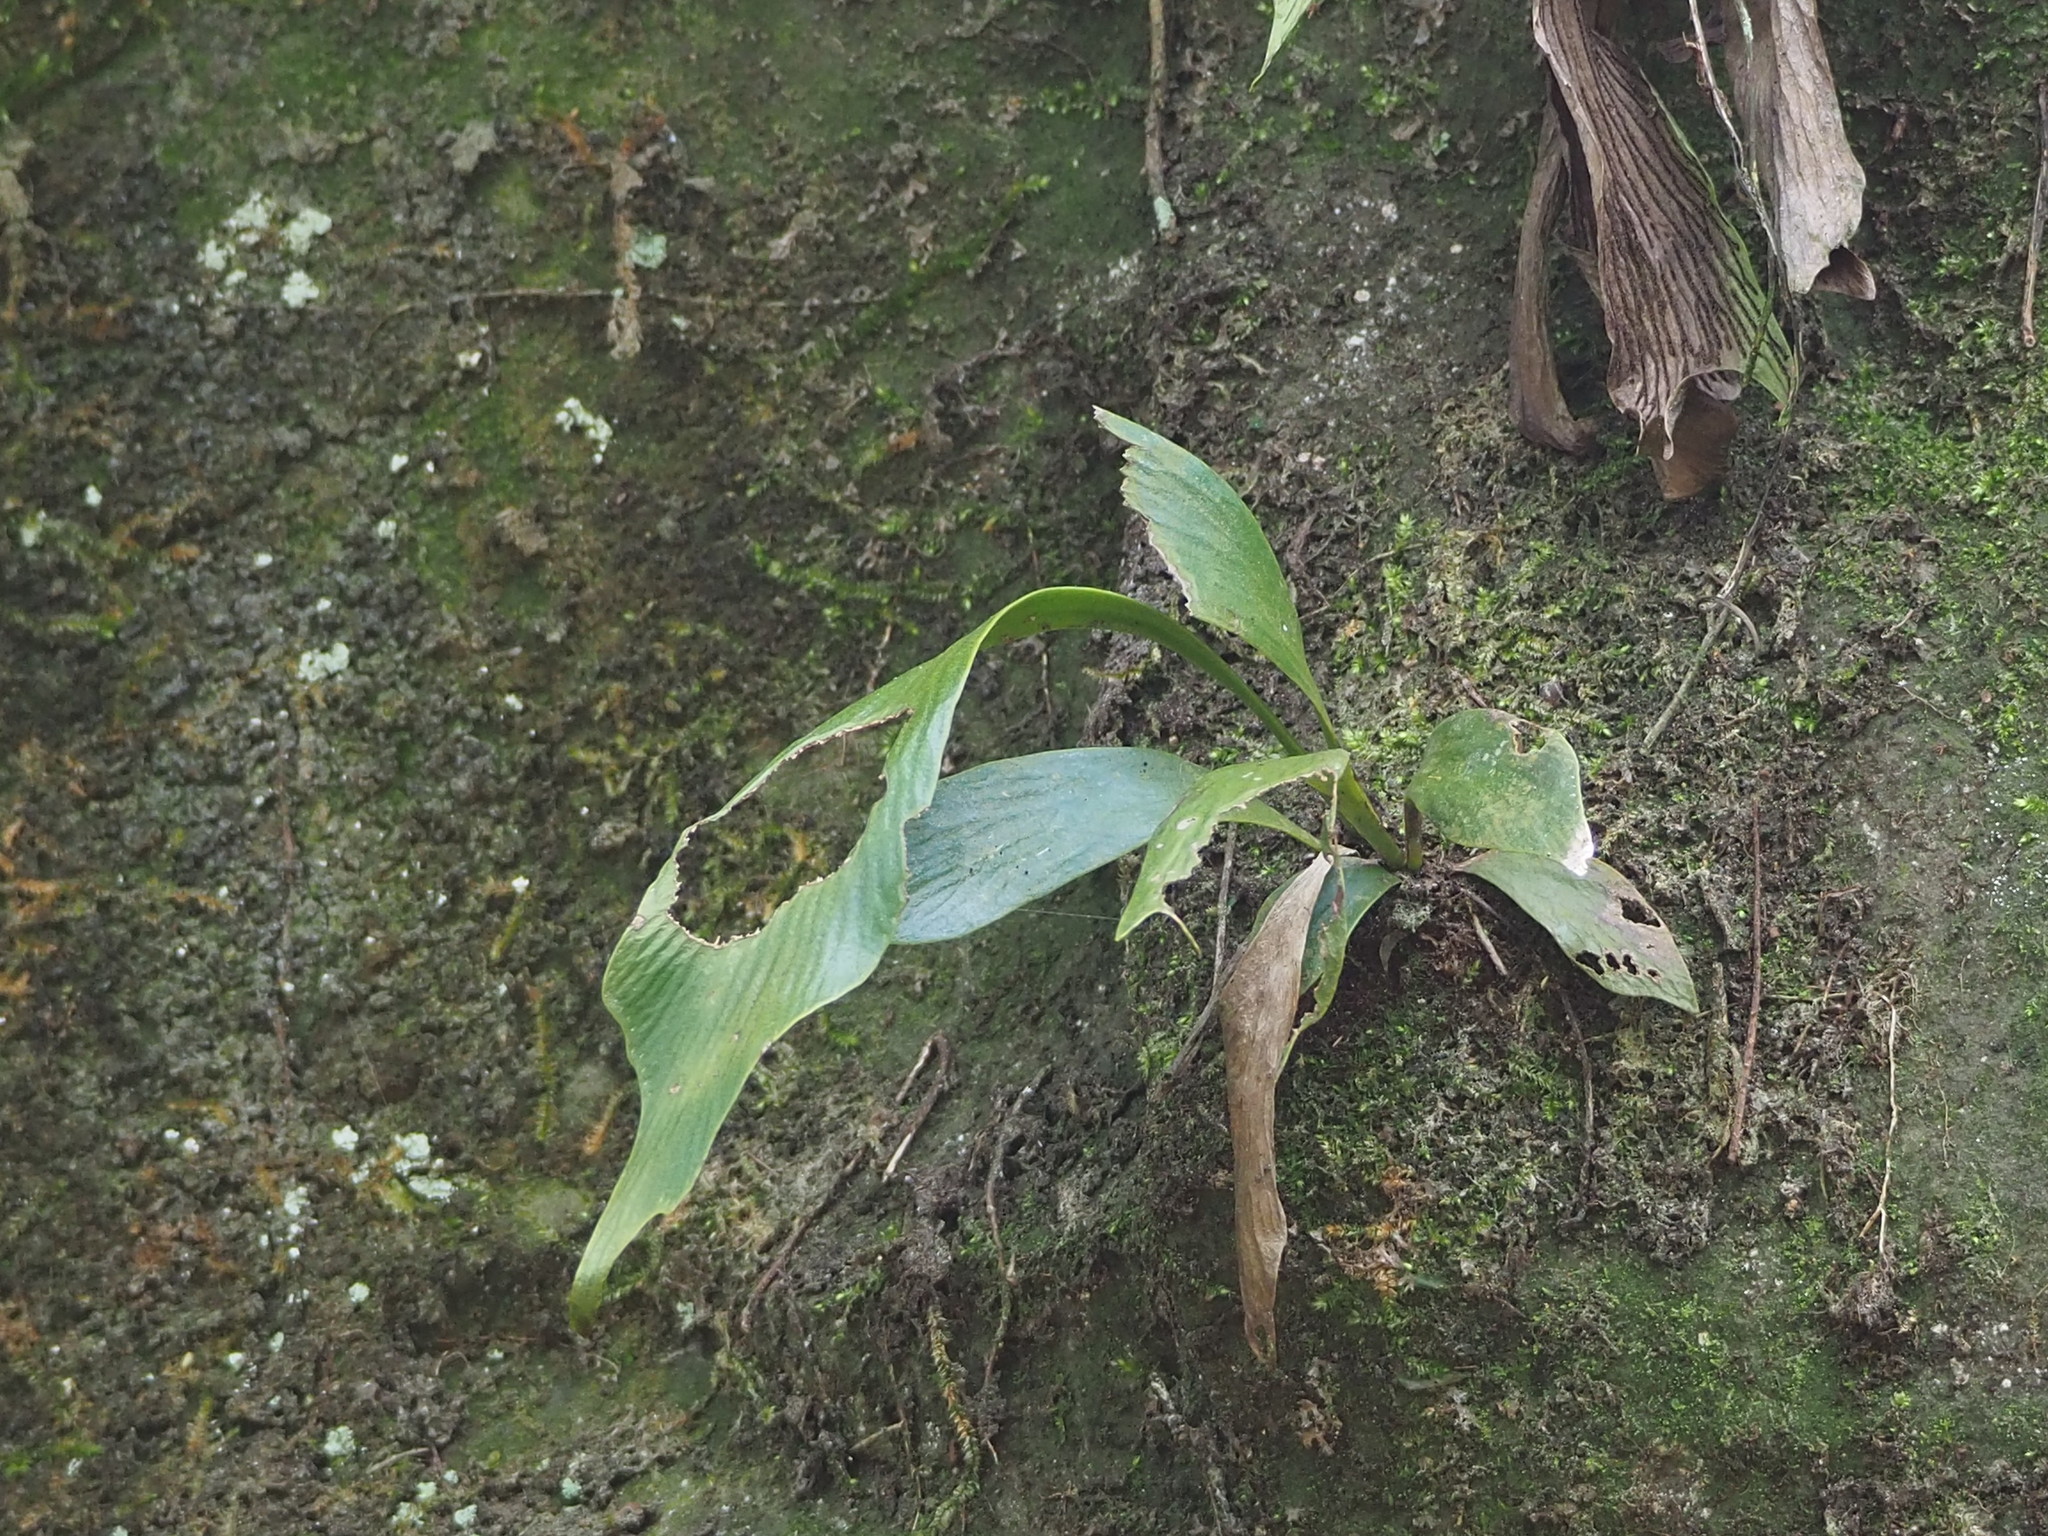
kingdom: Plantae
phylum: Tracheophyta
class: Polypodiopsida
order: Polypodiales
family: Pteridaceae
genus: Antrophyum
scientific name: Antrophyum formosanum
